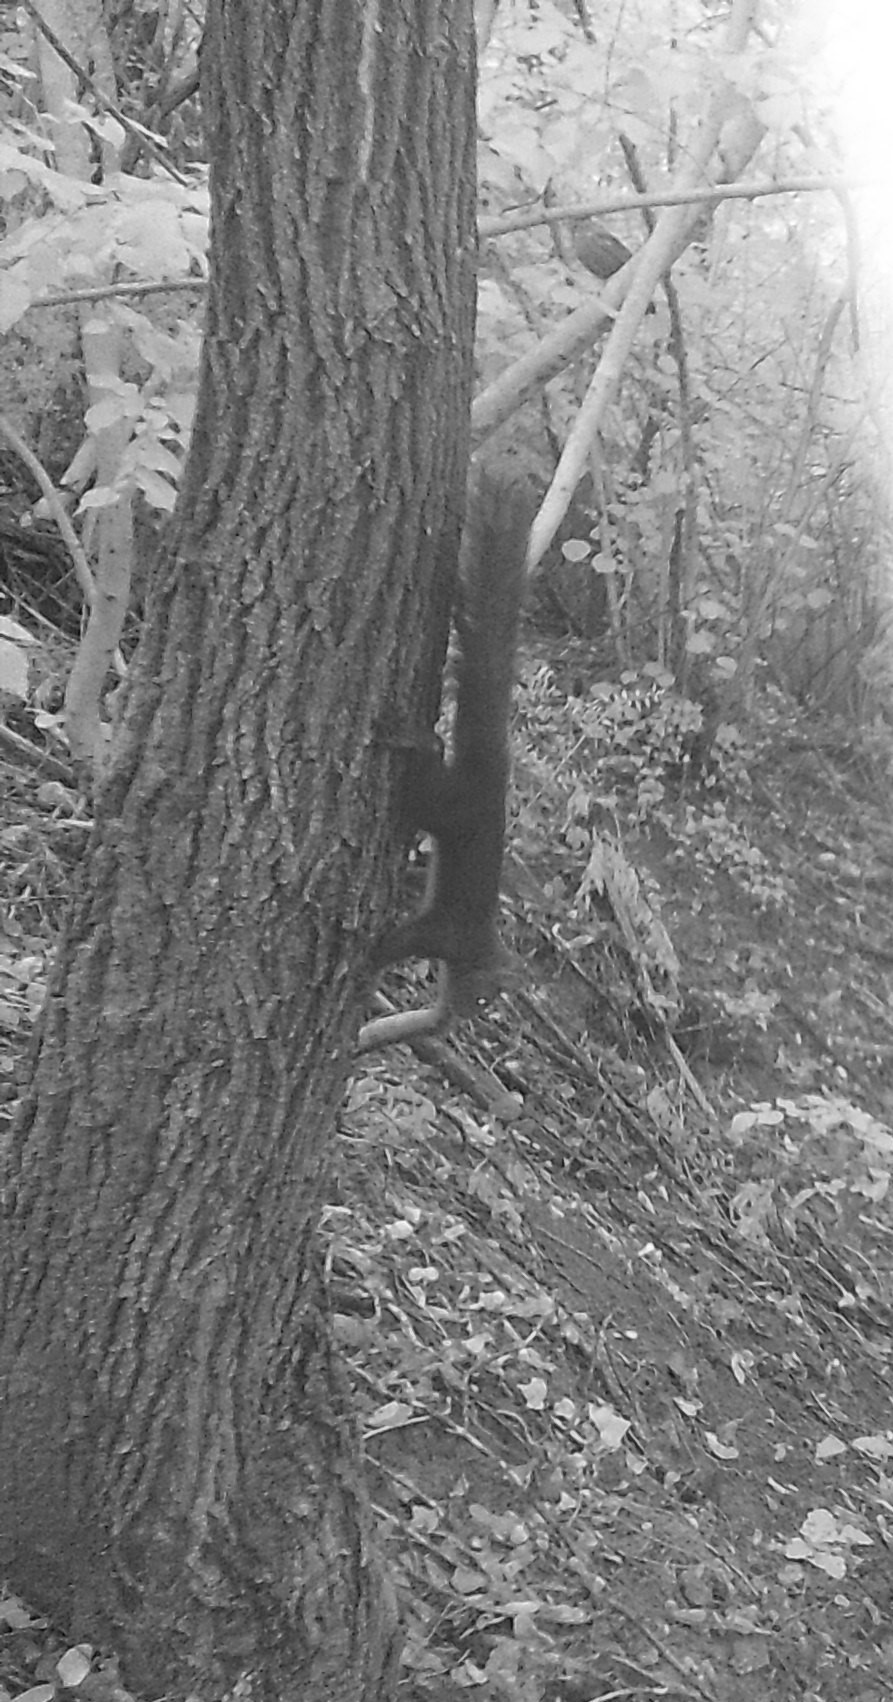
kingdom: Animalia
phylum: Chordata
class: Mammalia
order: Rodentia
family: Sciuridae
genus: Sciurus
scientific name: Sciurus vulgaris
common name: Eurasian red squirrel
